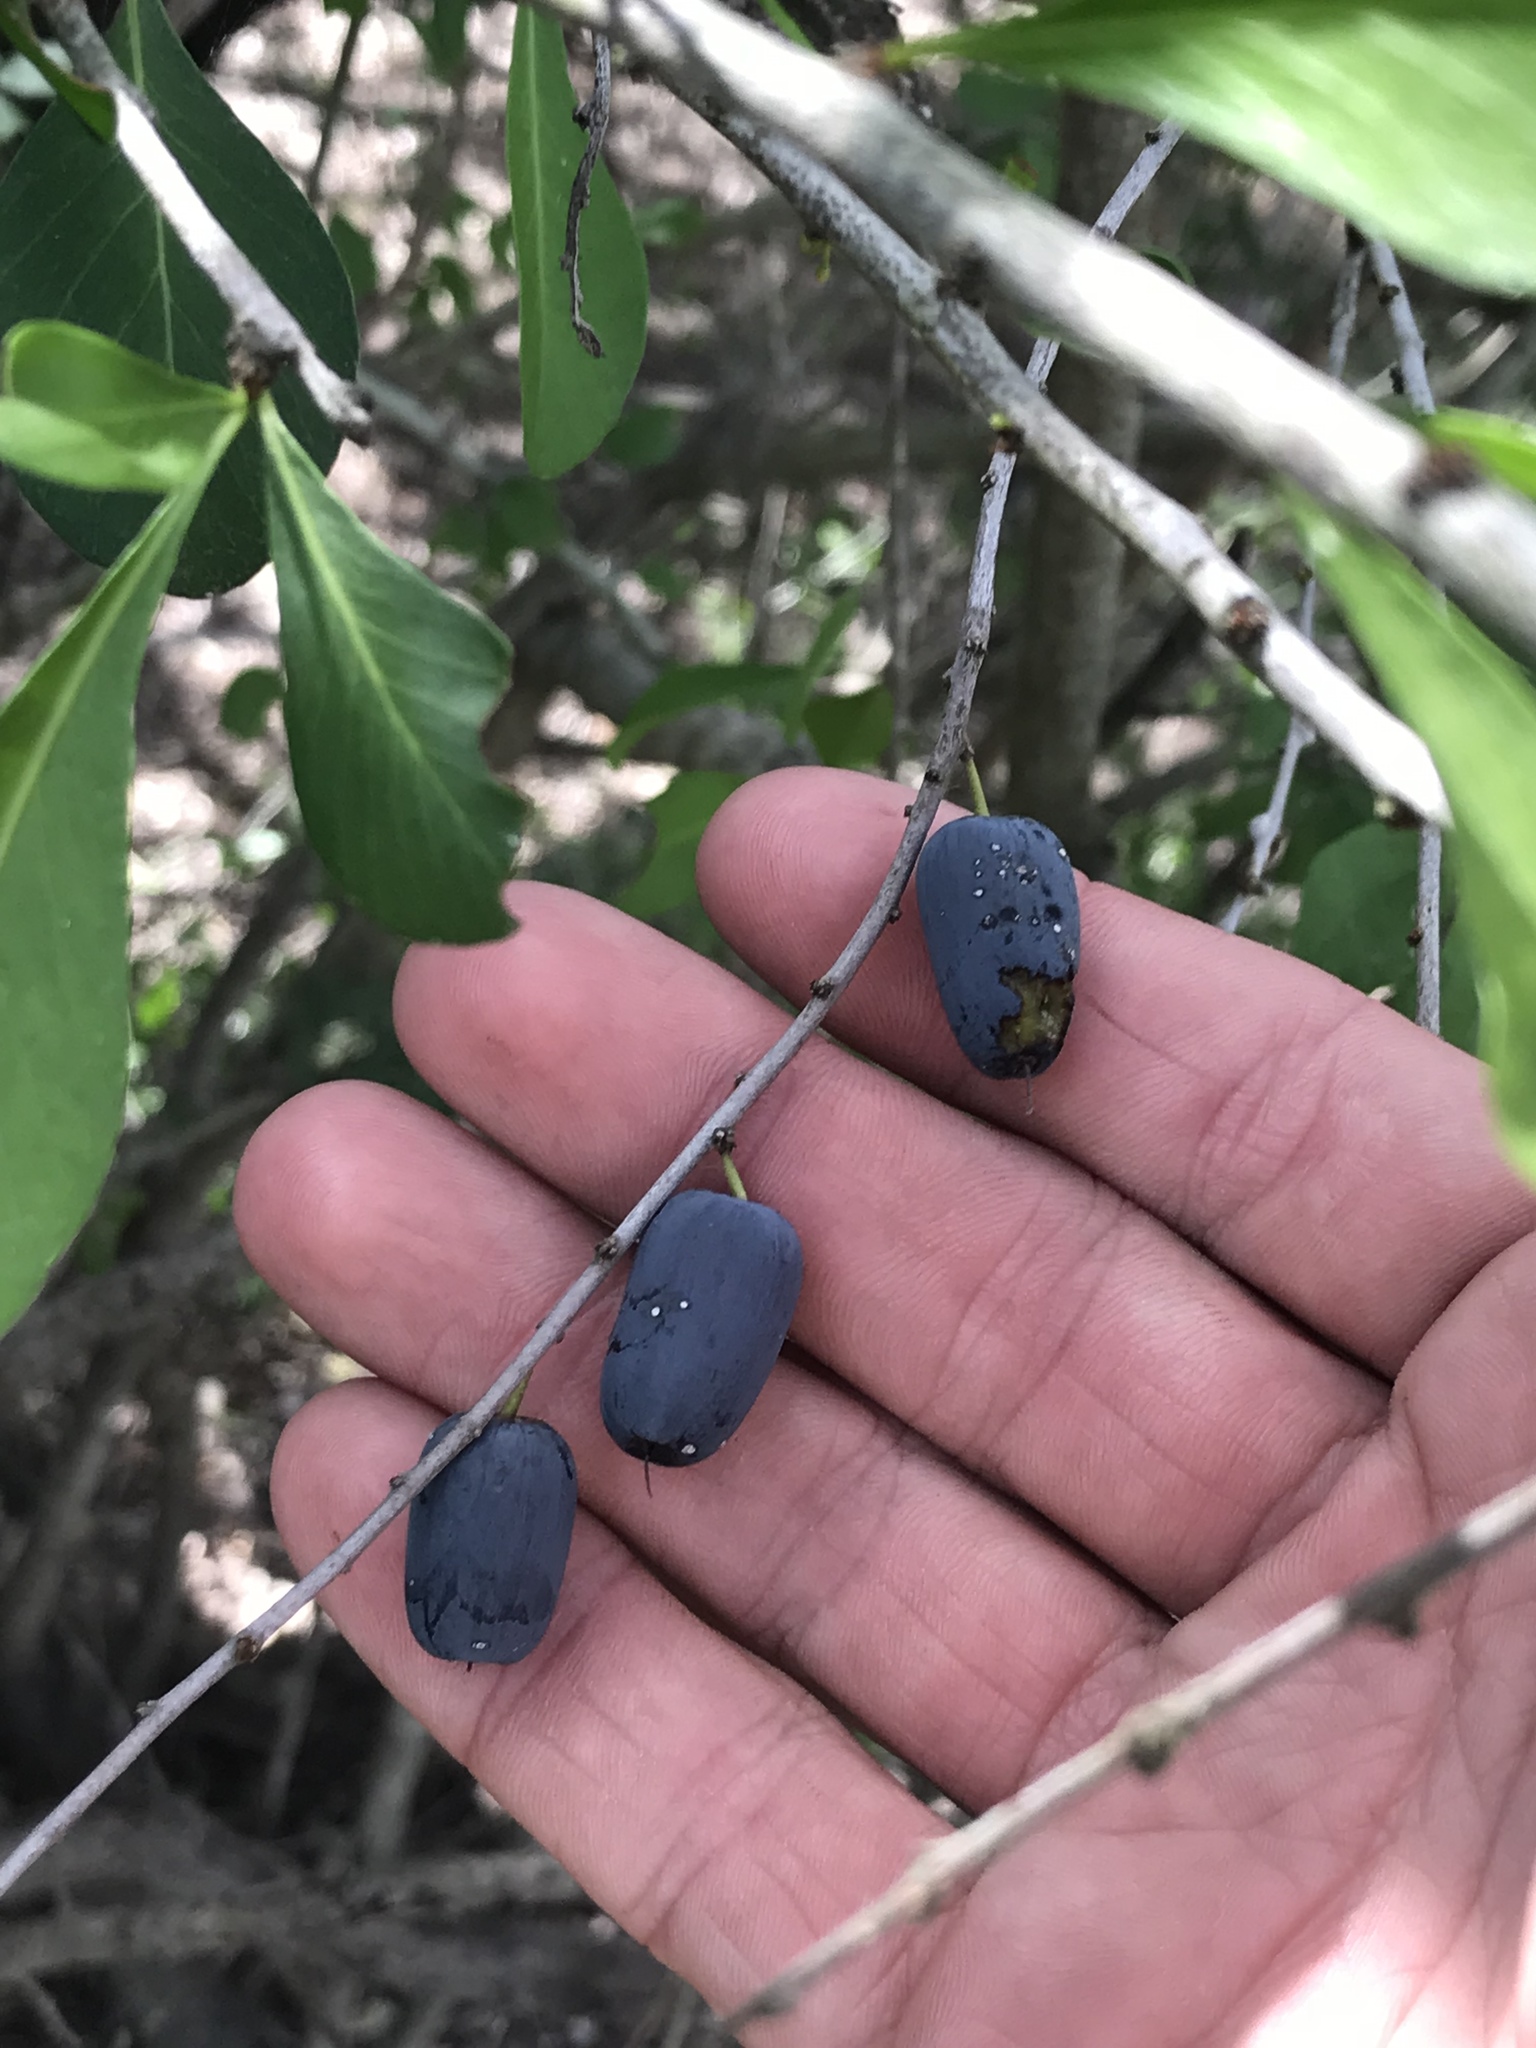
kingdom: Plantae
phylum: Tracheophyta
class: Magnoliopsida
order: Ericales
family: Sapotaceae
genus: Sideroxylon
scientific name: Sideroxylon celastrinum
